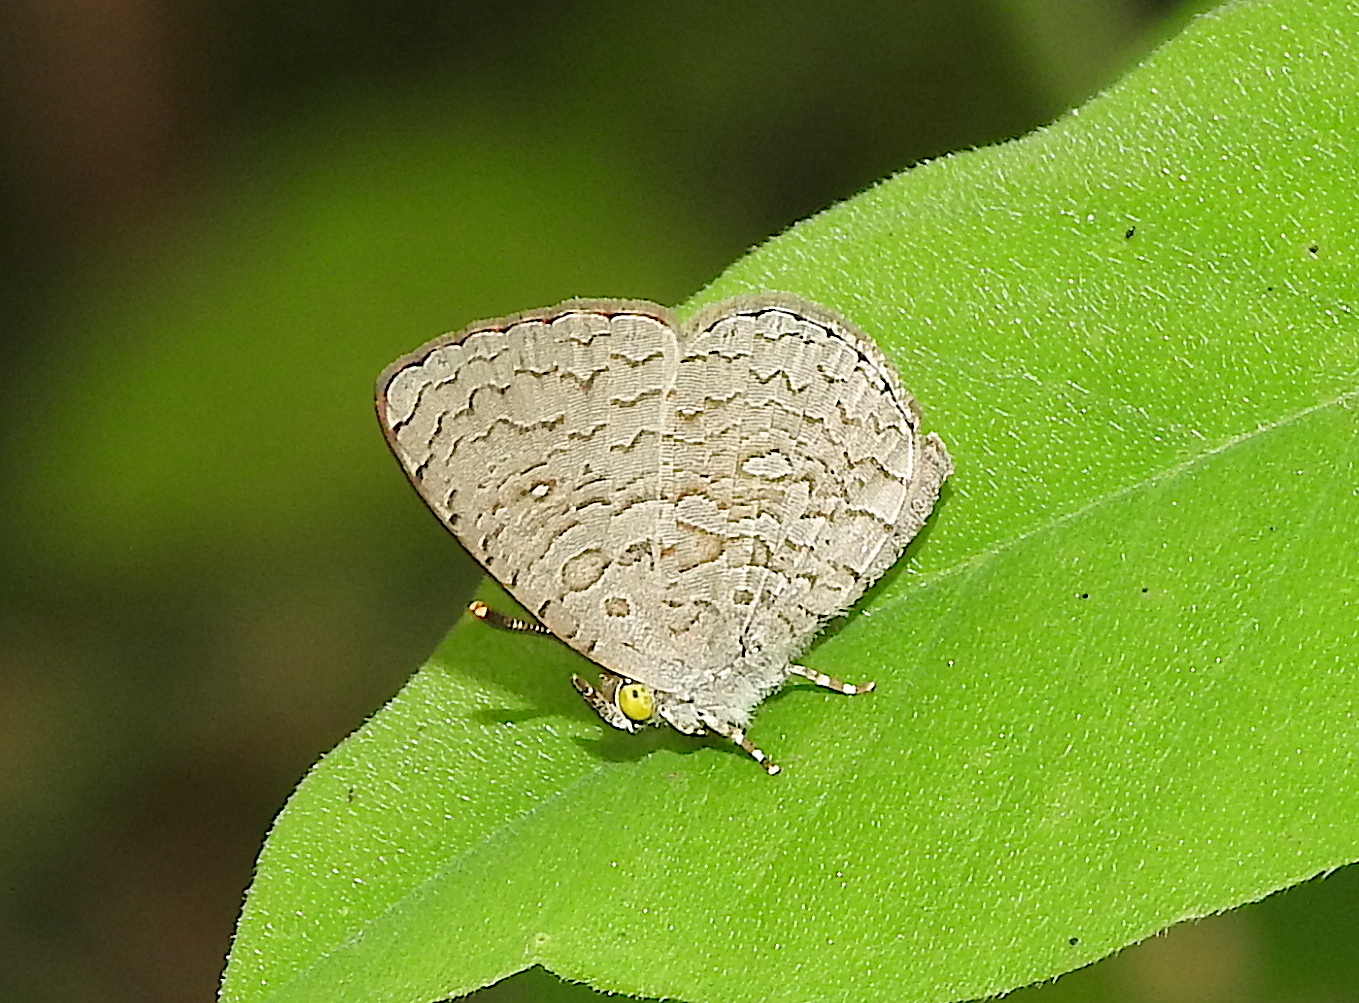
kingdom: Animalia
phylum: Arthropoda
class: Insecta
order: Lepidoptera
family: Lycaenidae
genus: Spalgis
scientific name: Spalgis epius
